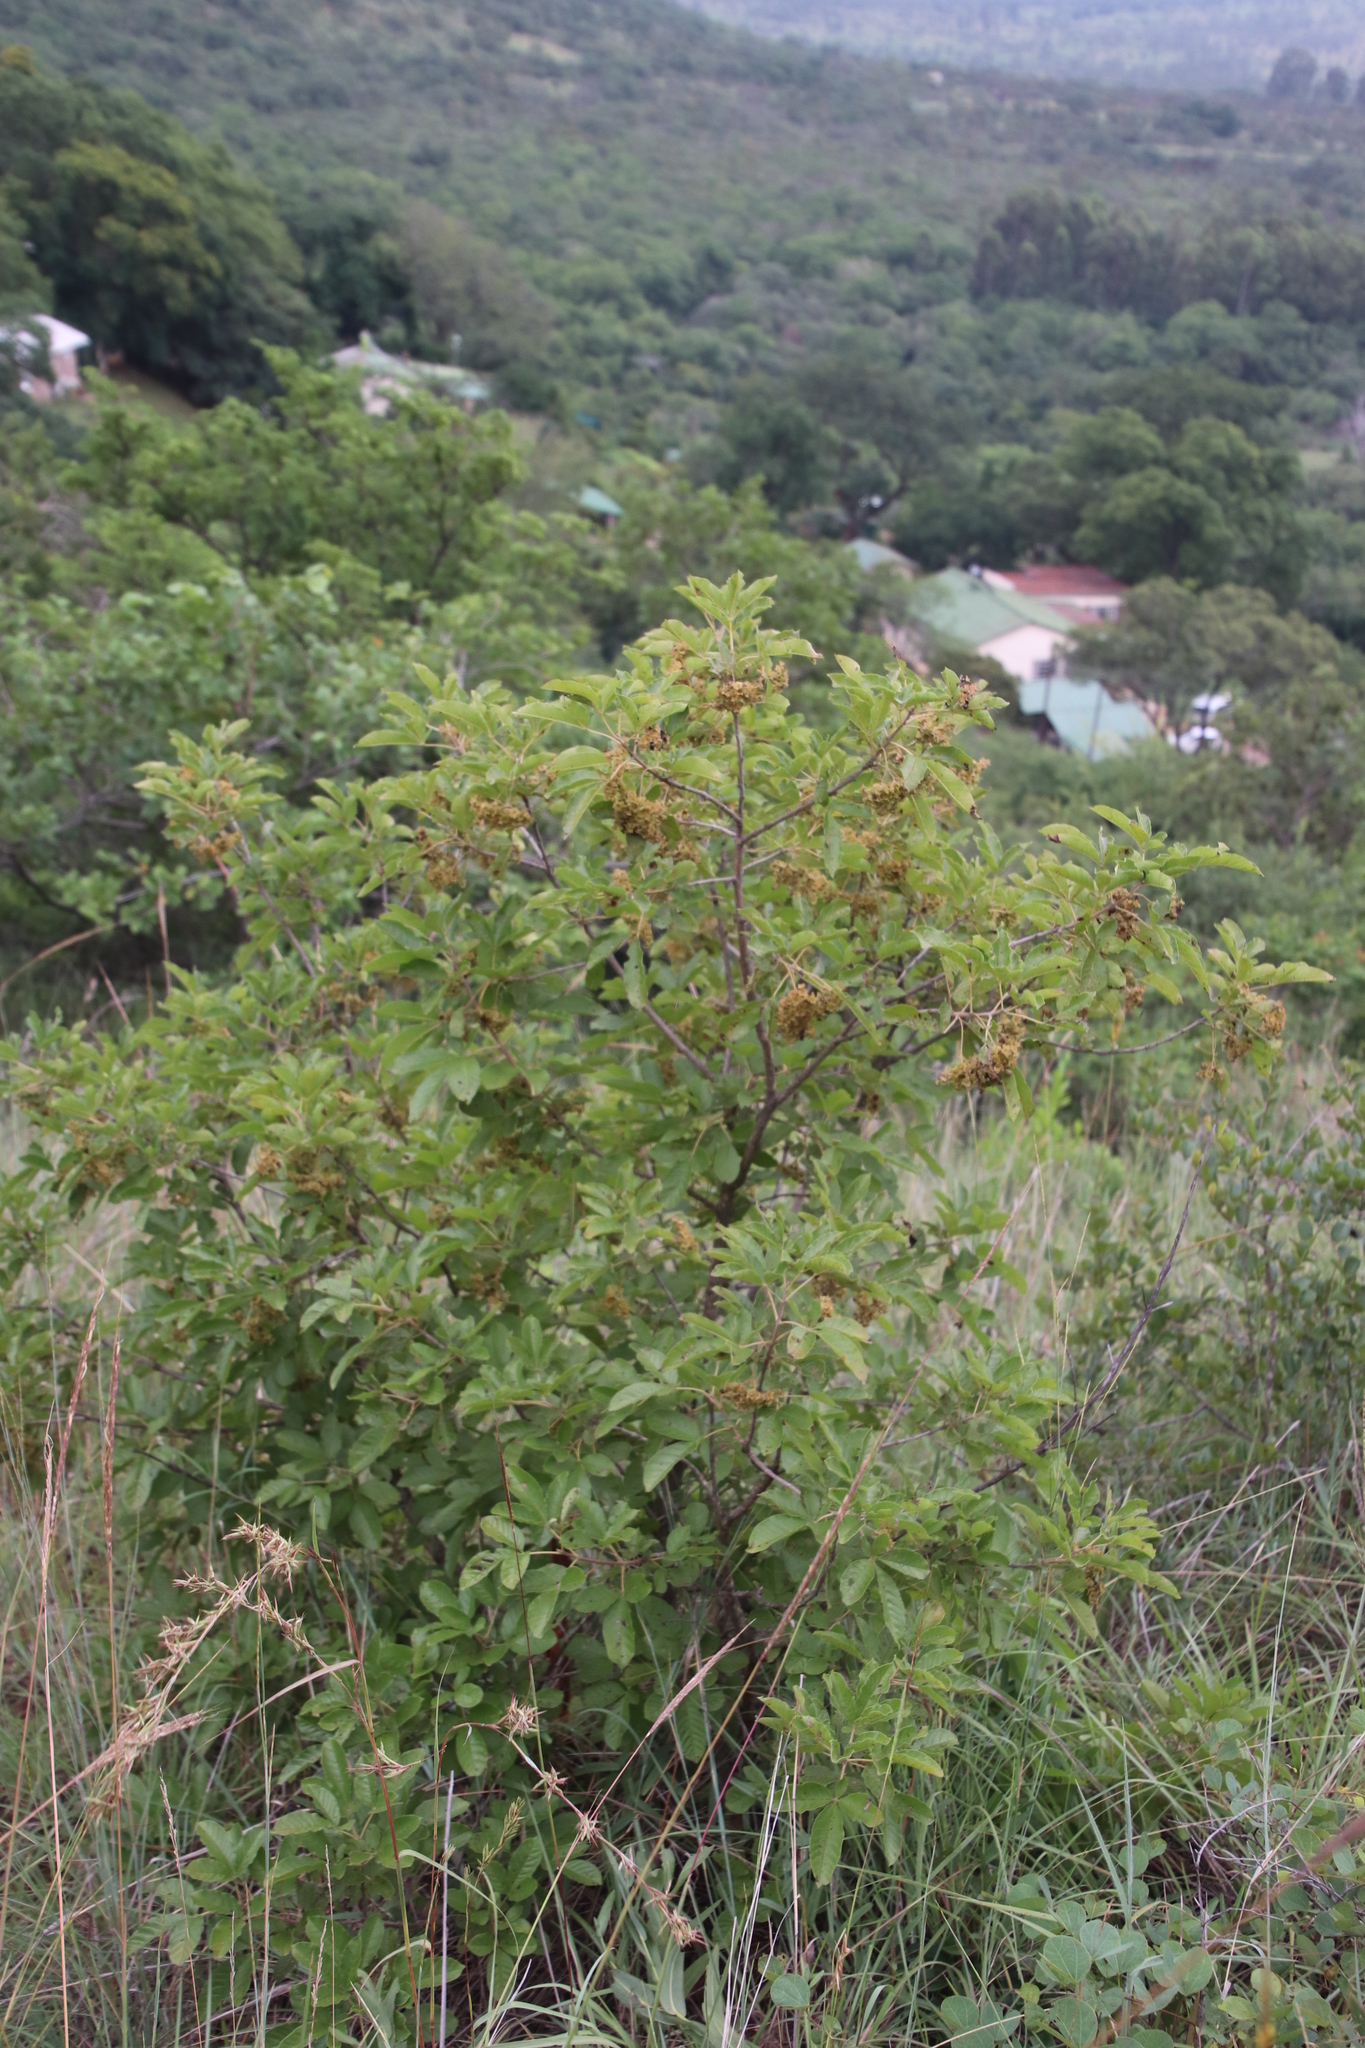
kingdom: Plantae
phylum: Tracheophyta
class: Magnoliopsida
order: Lamiales
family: Lamiaceae
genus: Vitex
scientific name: Vitex obovata
